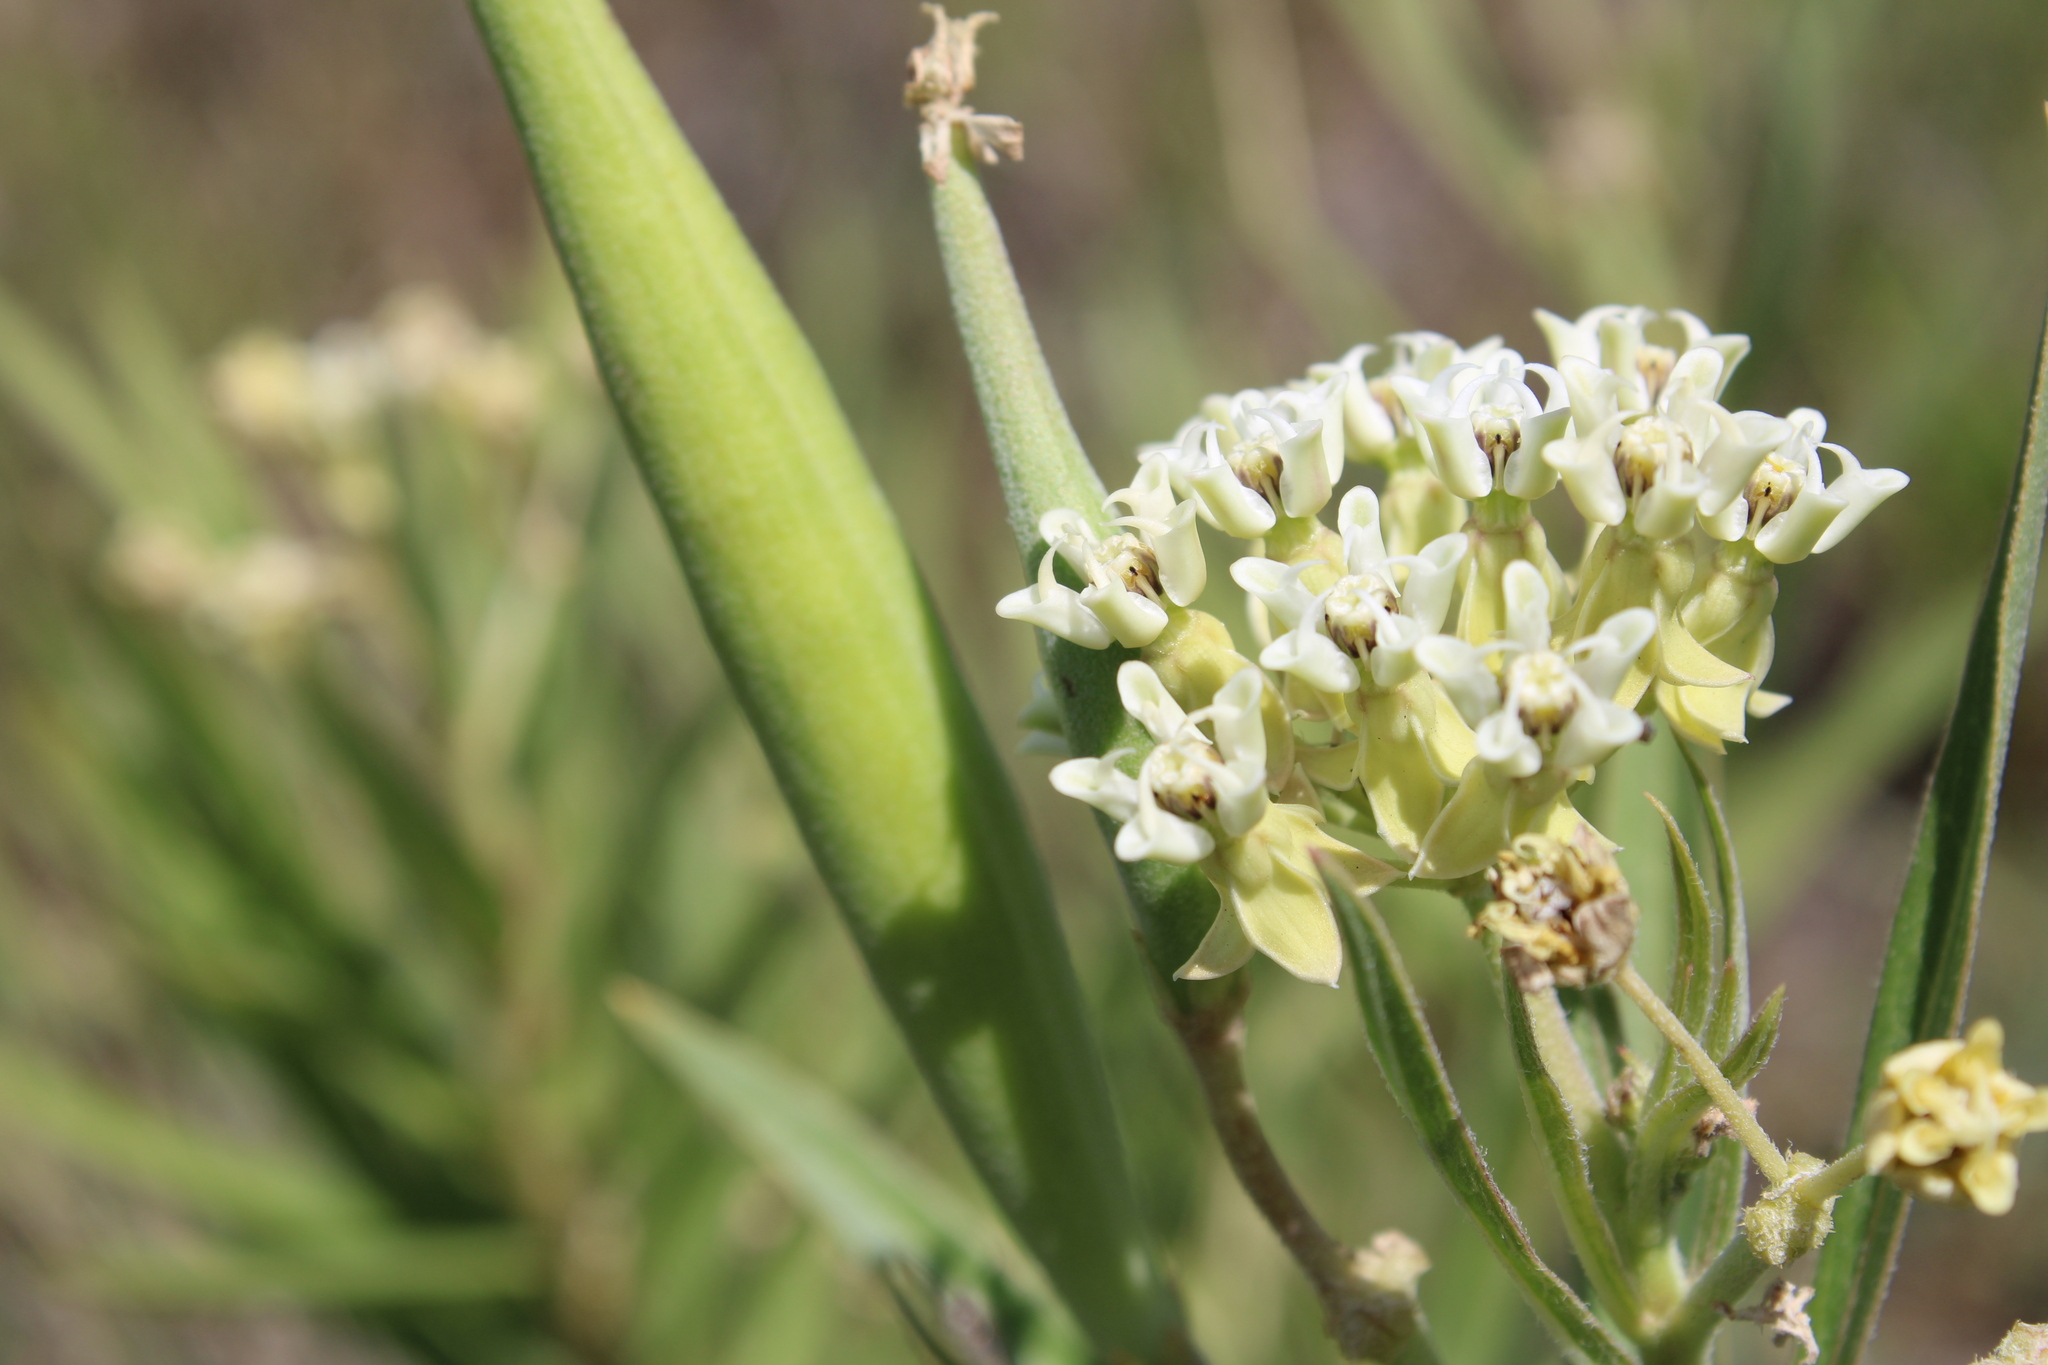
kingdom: Plantae
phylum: Tracheophyta
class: Magnoliopsida
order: Gentianales
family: Apocynaceae
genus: Asclepias
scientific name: Asclepias mellodora
